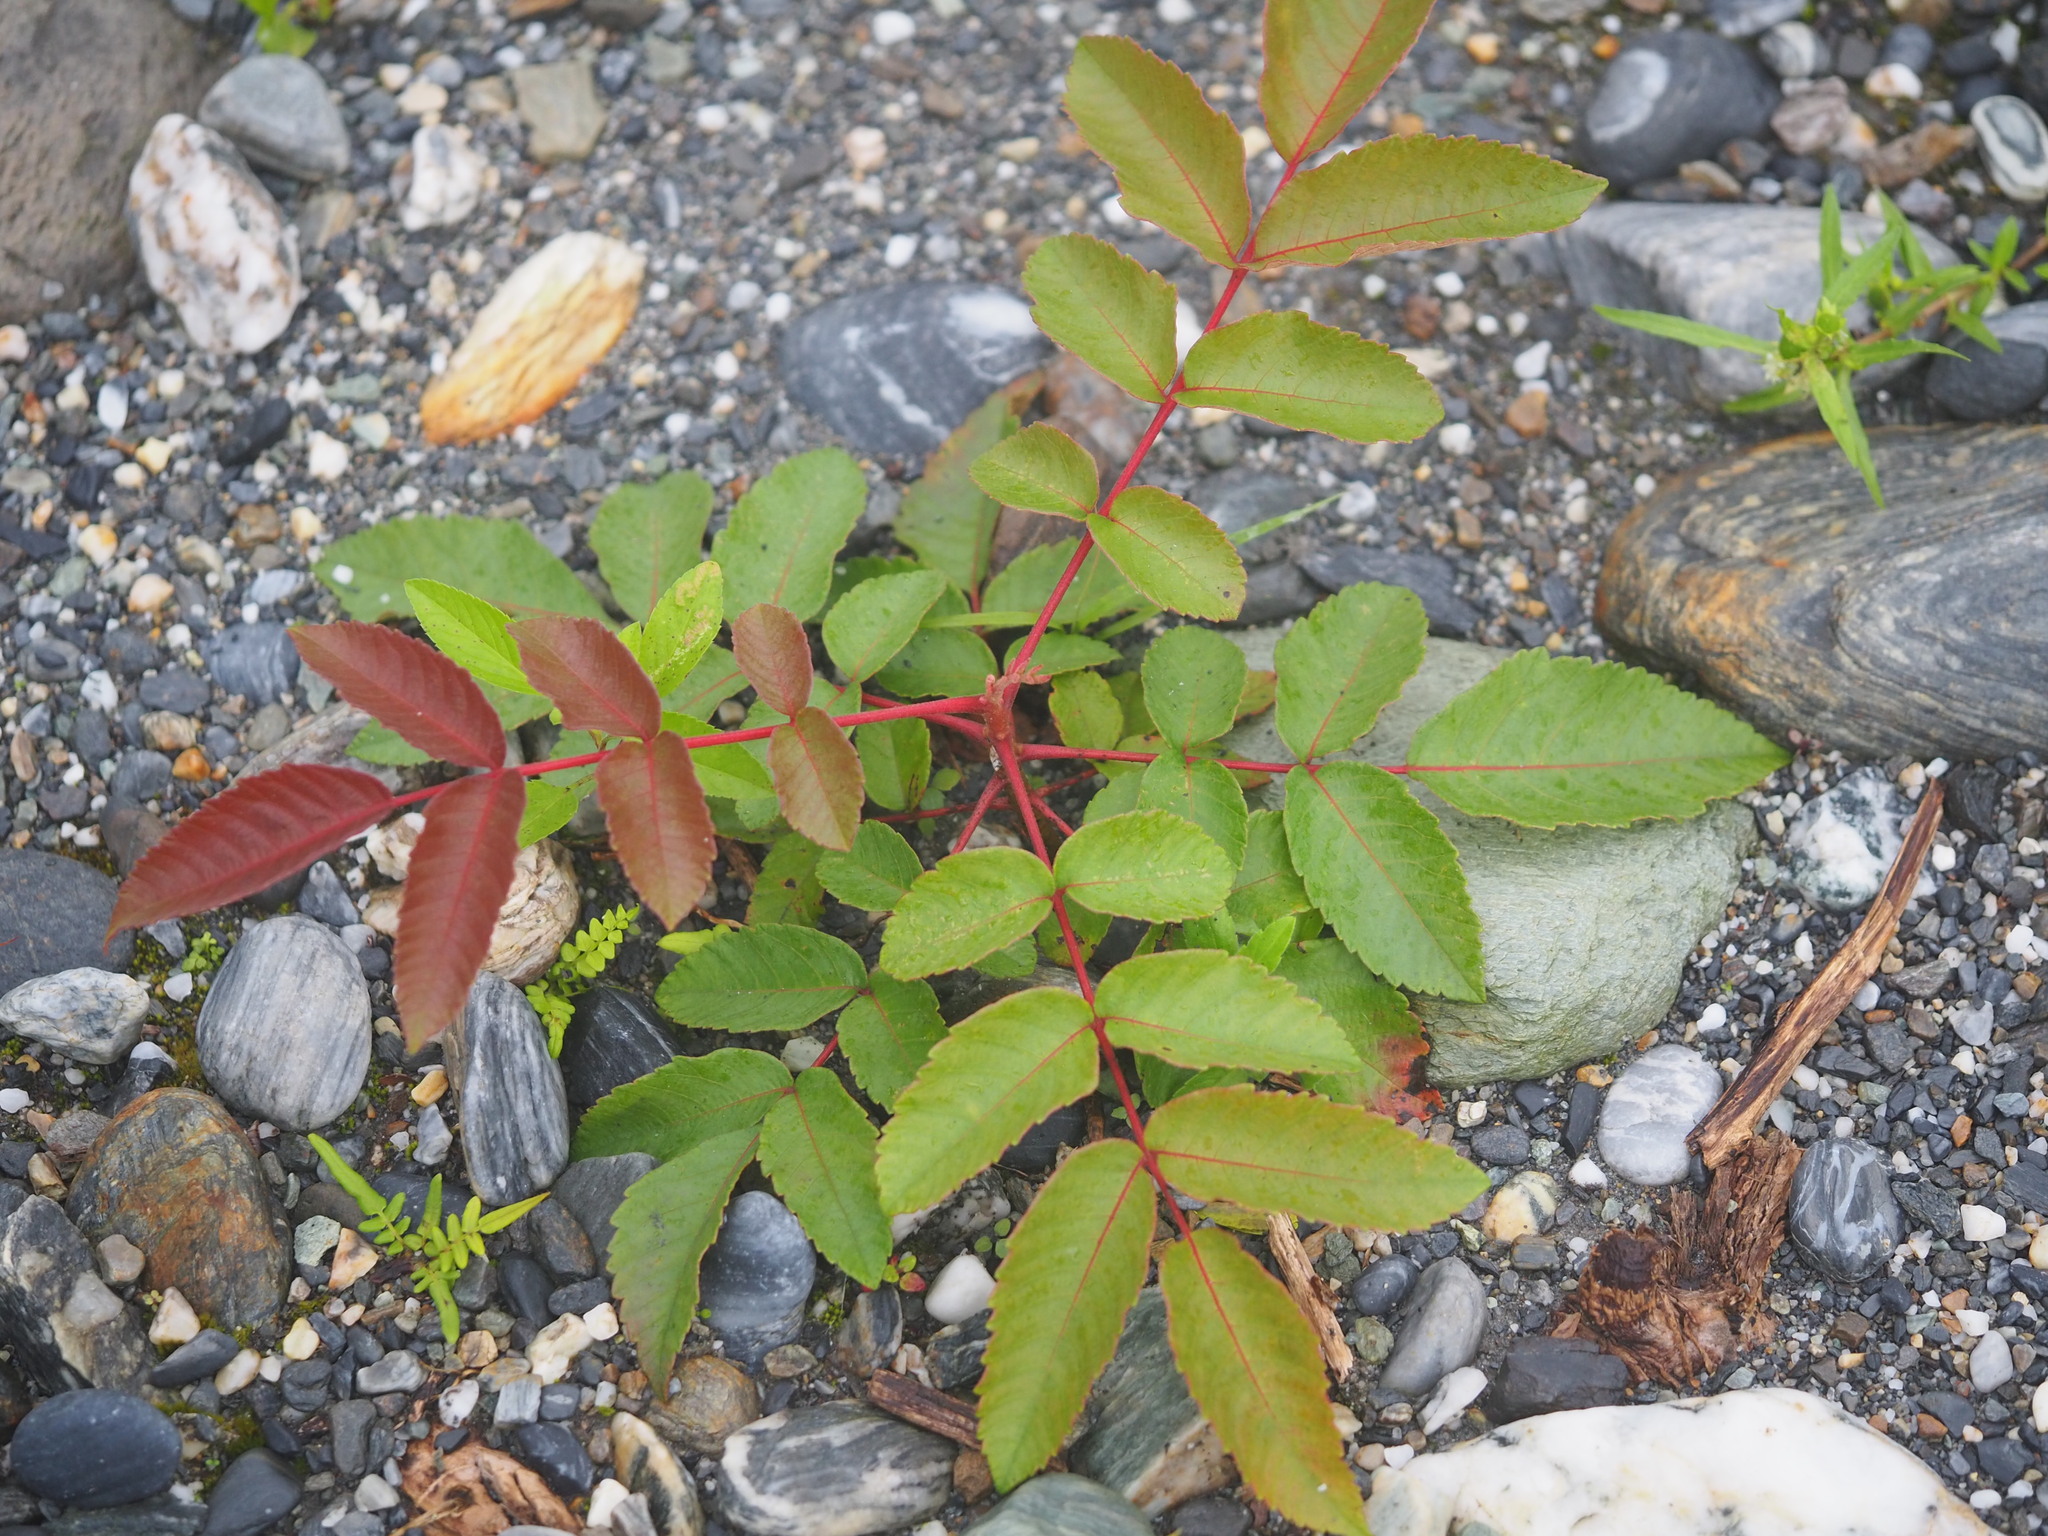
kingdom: Plantae
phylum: Tracheophyta
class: Magnoliopsida
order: Sapindales
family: Anacardiaceae
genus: Rhus
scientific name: Rhus chinensis
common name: Chinese gall
